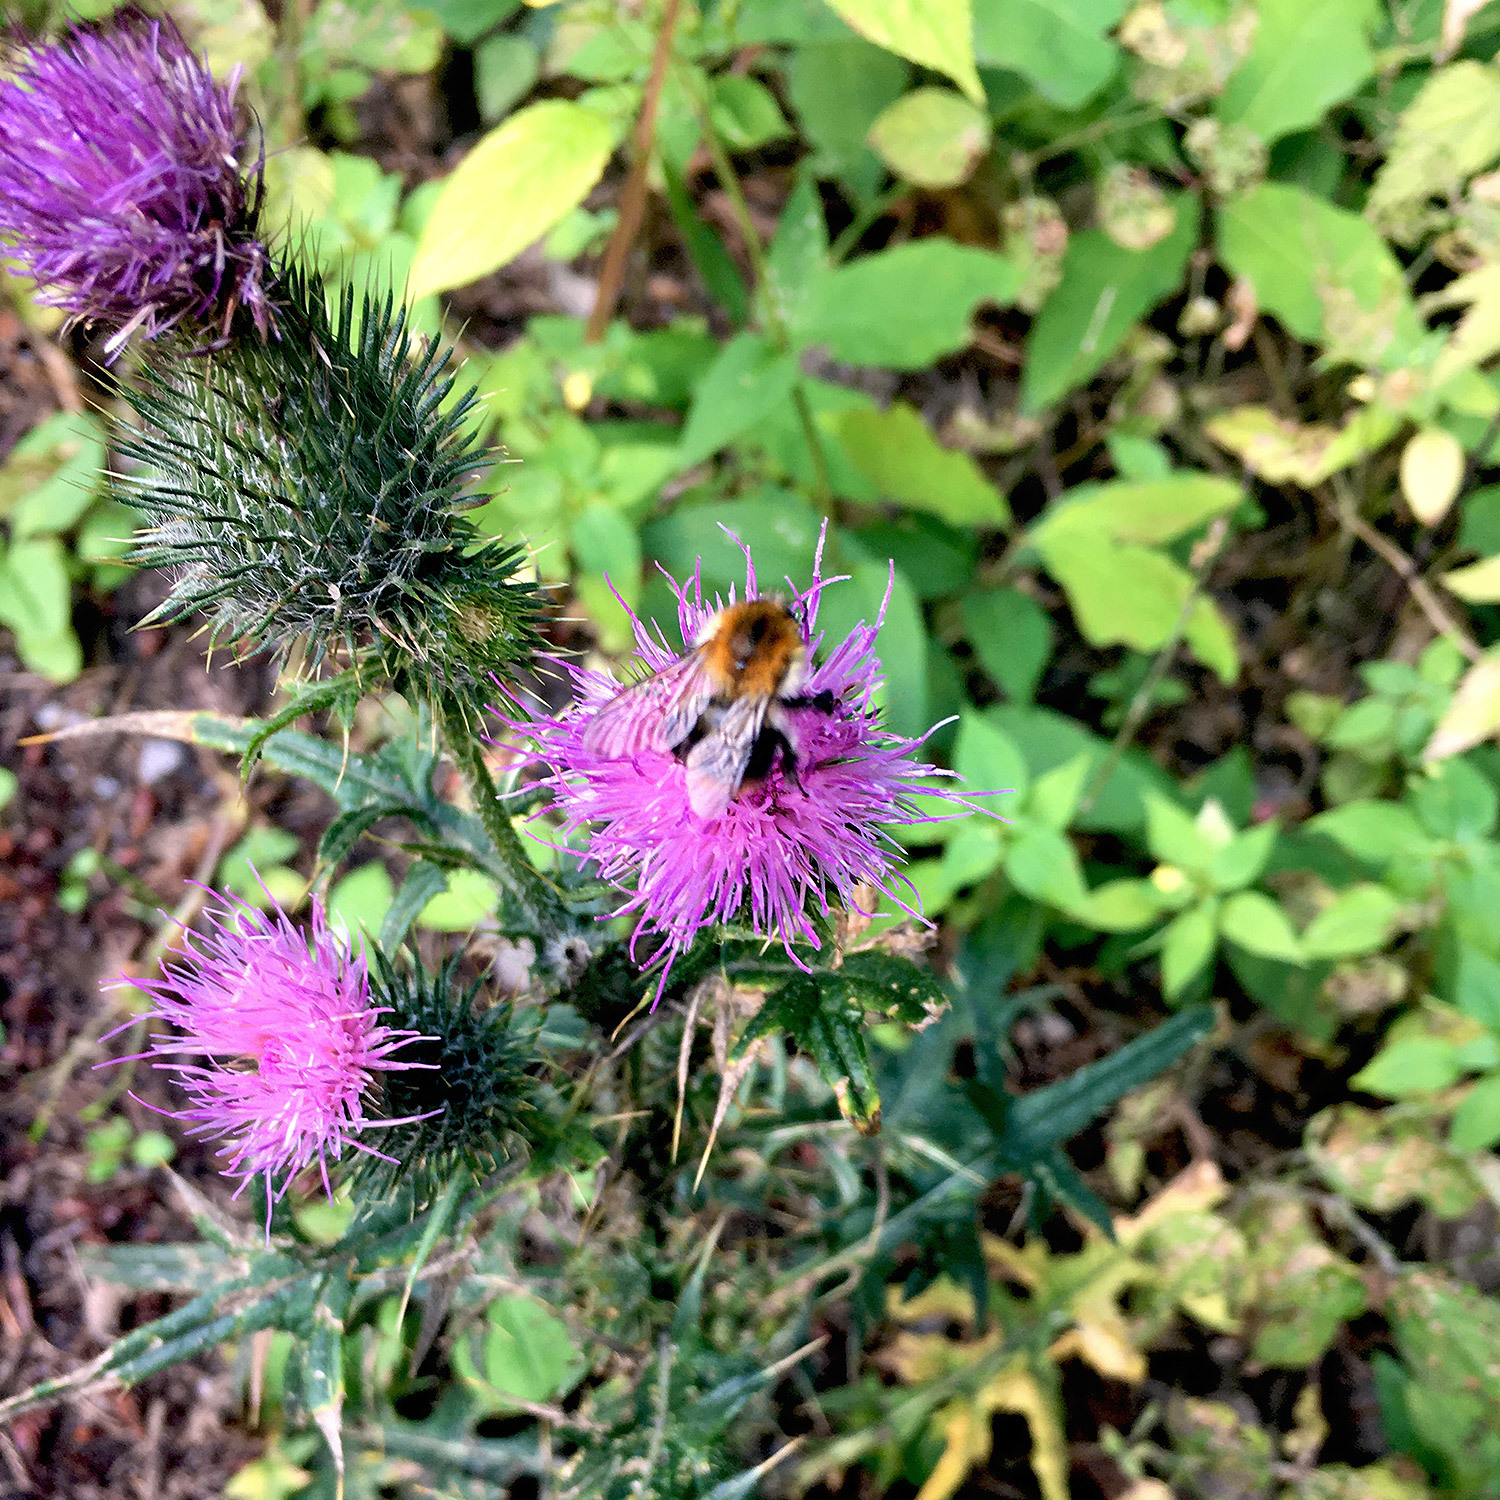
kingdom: Animalia
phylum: Arthropoda
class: Insecta
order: Hymenoptera
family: Apidae
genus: Bombus
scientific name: Bombus pascuorum
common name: Common carder bee
